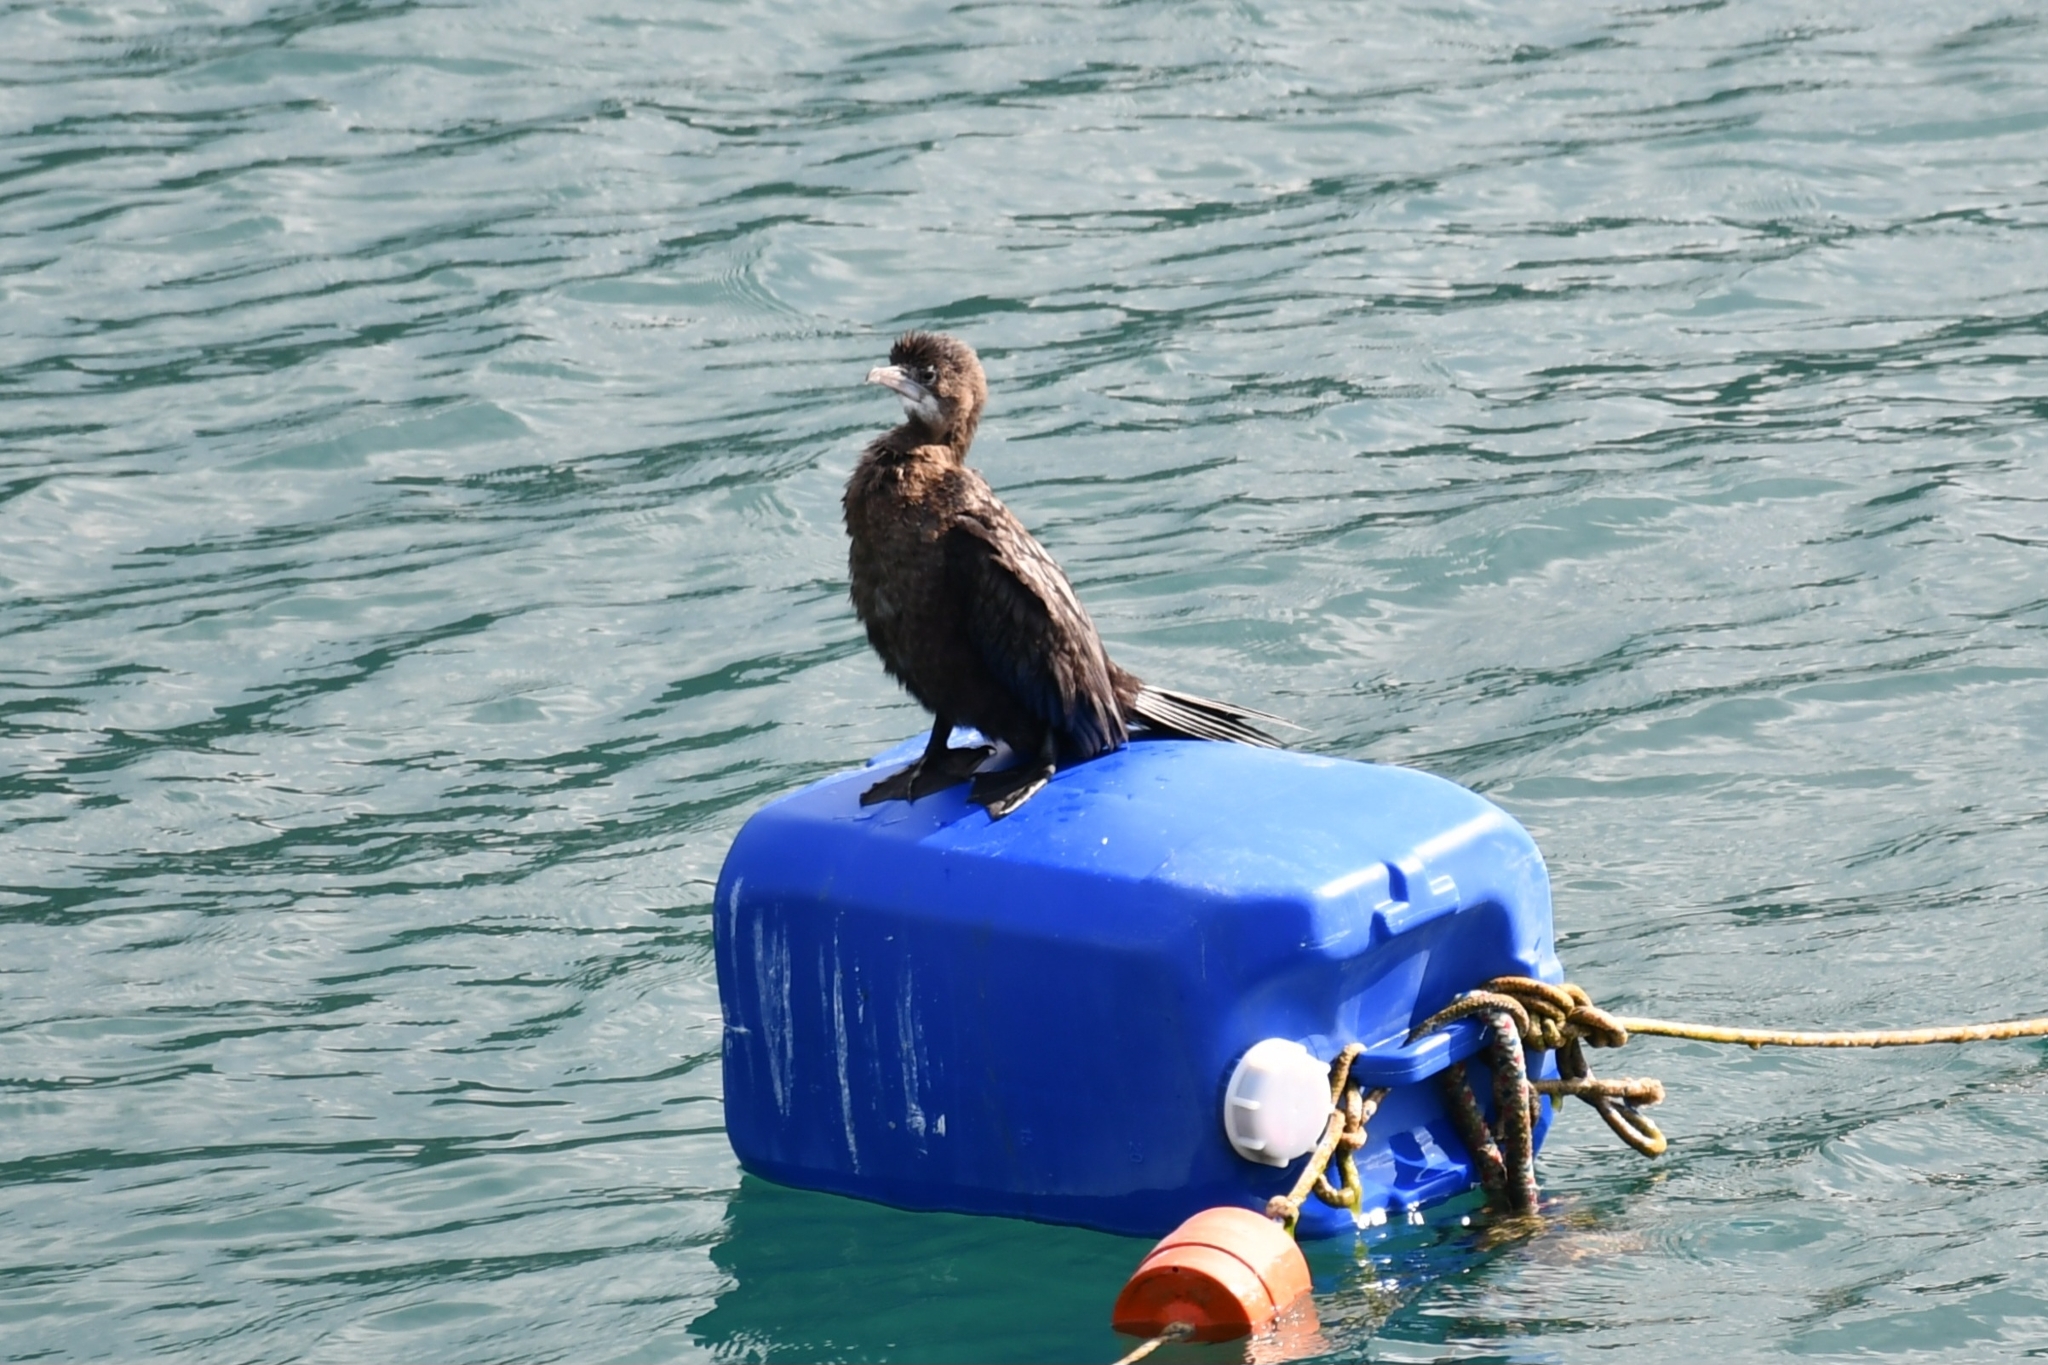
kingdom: Animalia
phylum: Chordata
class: Aves
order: Suliformes
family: Phalacrocoracidae
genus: Microcarbo
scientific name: Microcarbo pygmaeus
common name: Pygmy cormorant
